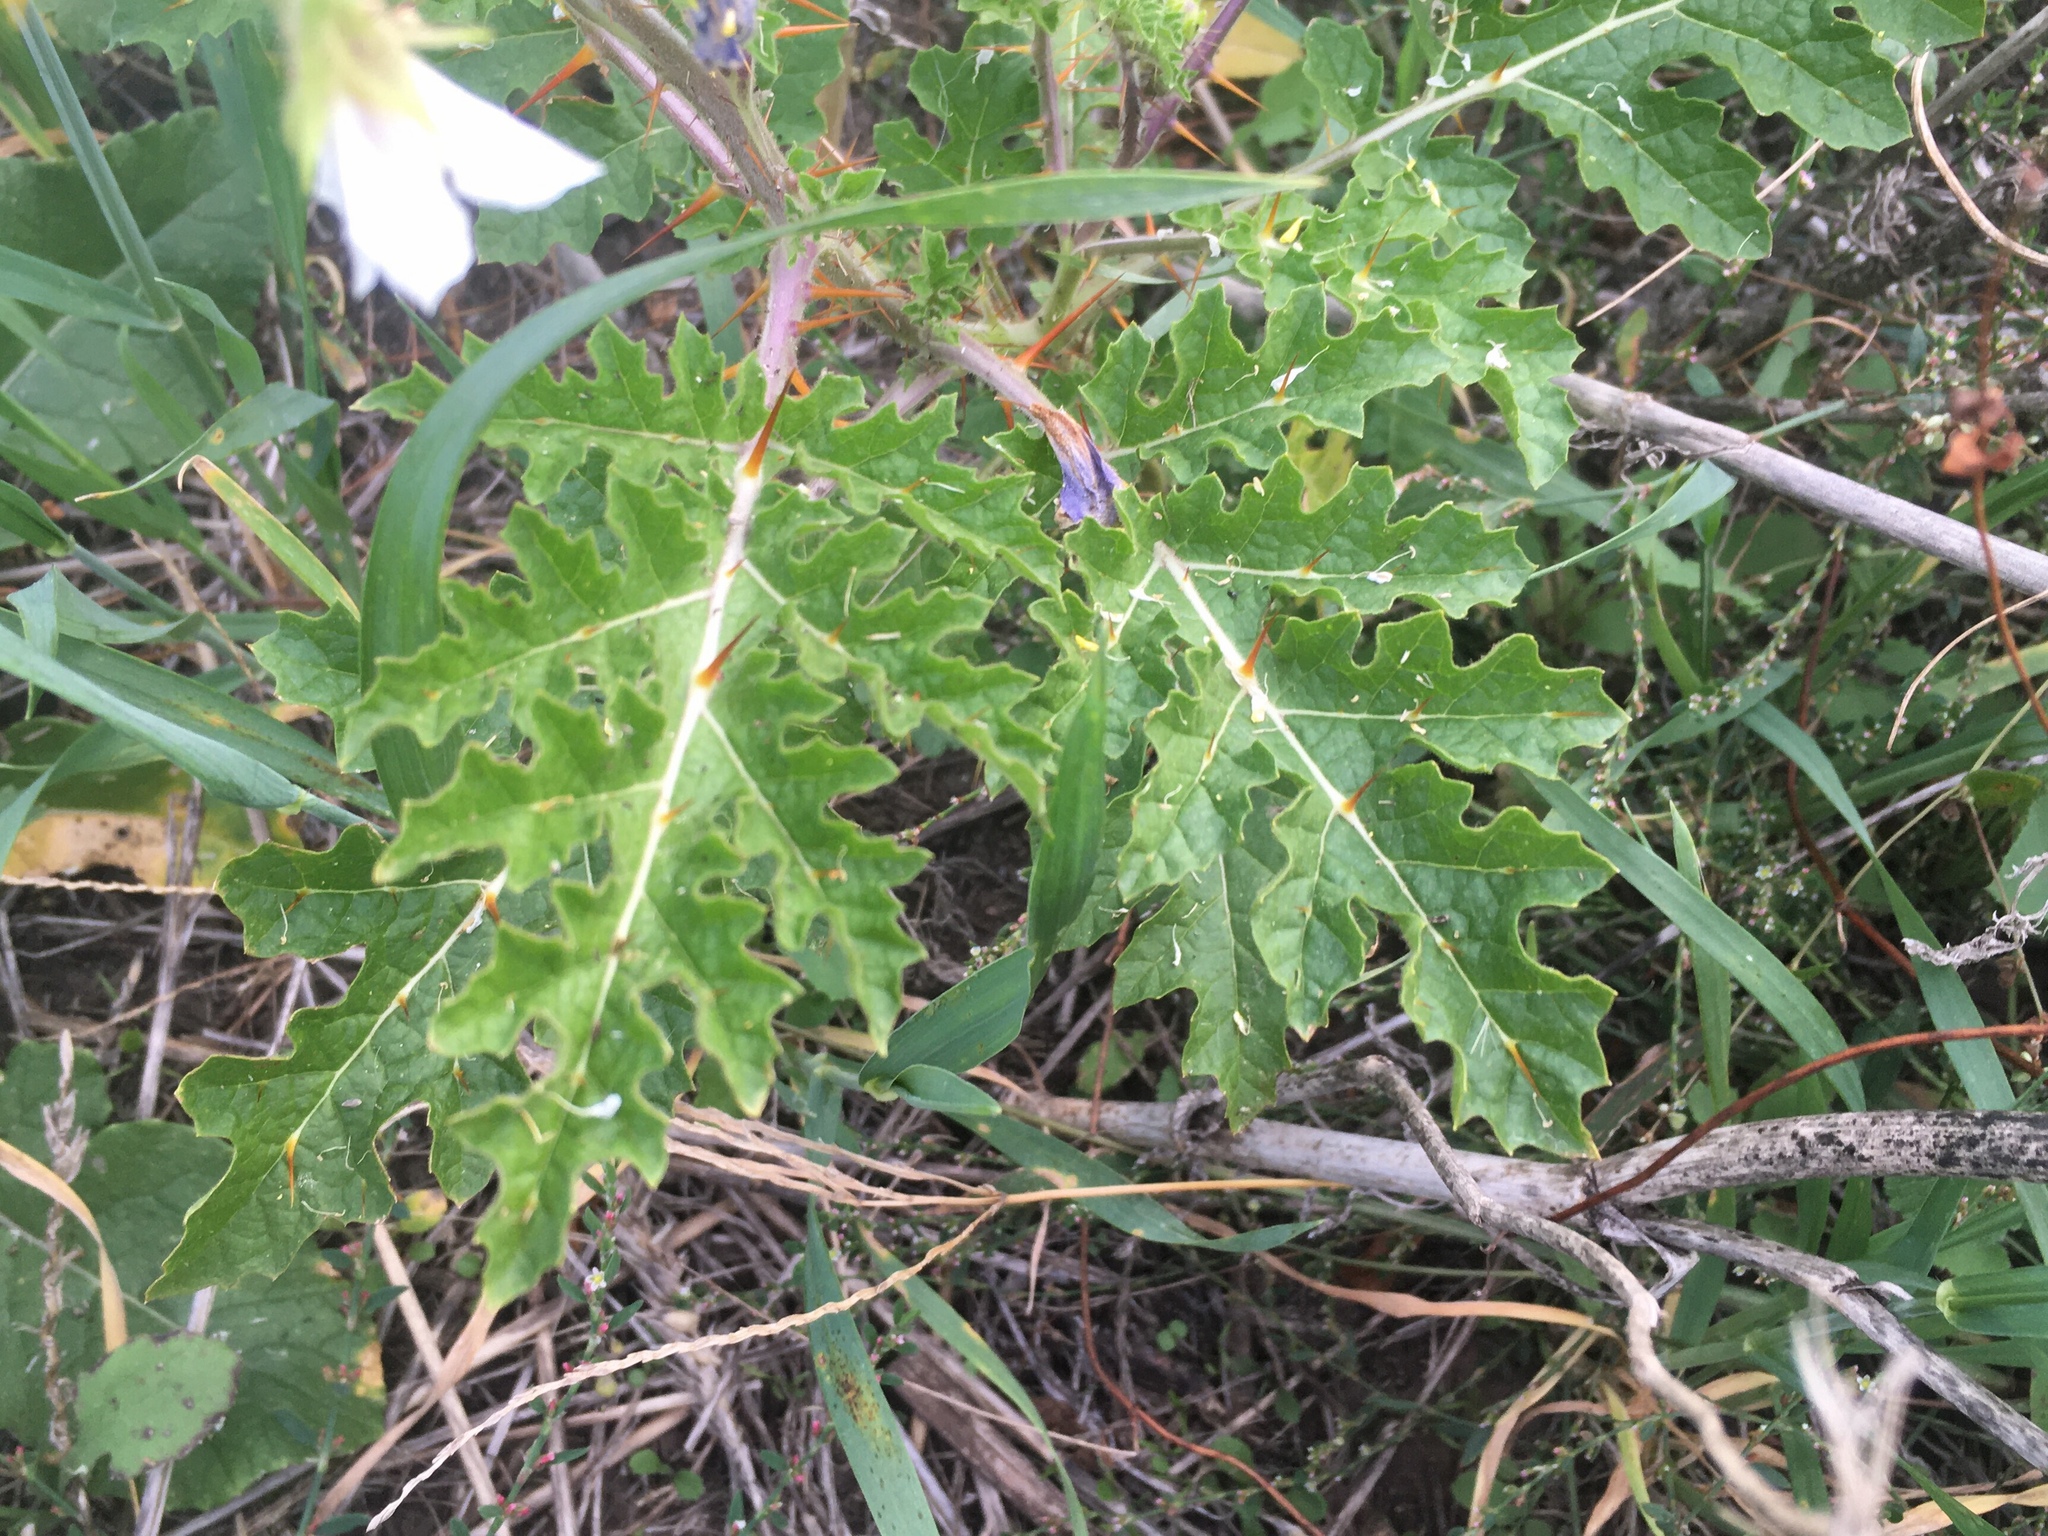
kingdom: Plantae
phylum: Tracheophyta
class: Magnoliopsida
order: Solanales
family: Solanaceae
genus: Solanum
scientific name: Solanum sisymbriifolium
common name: Red buffalo-bur
